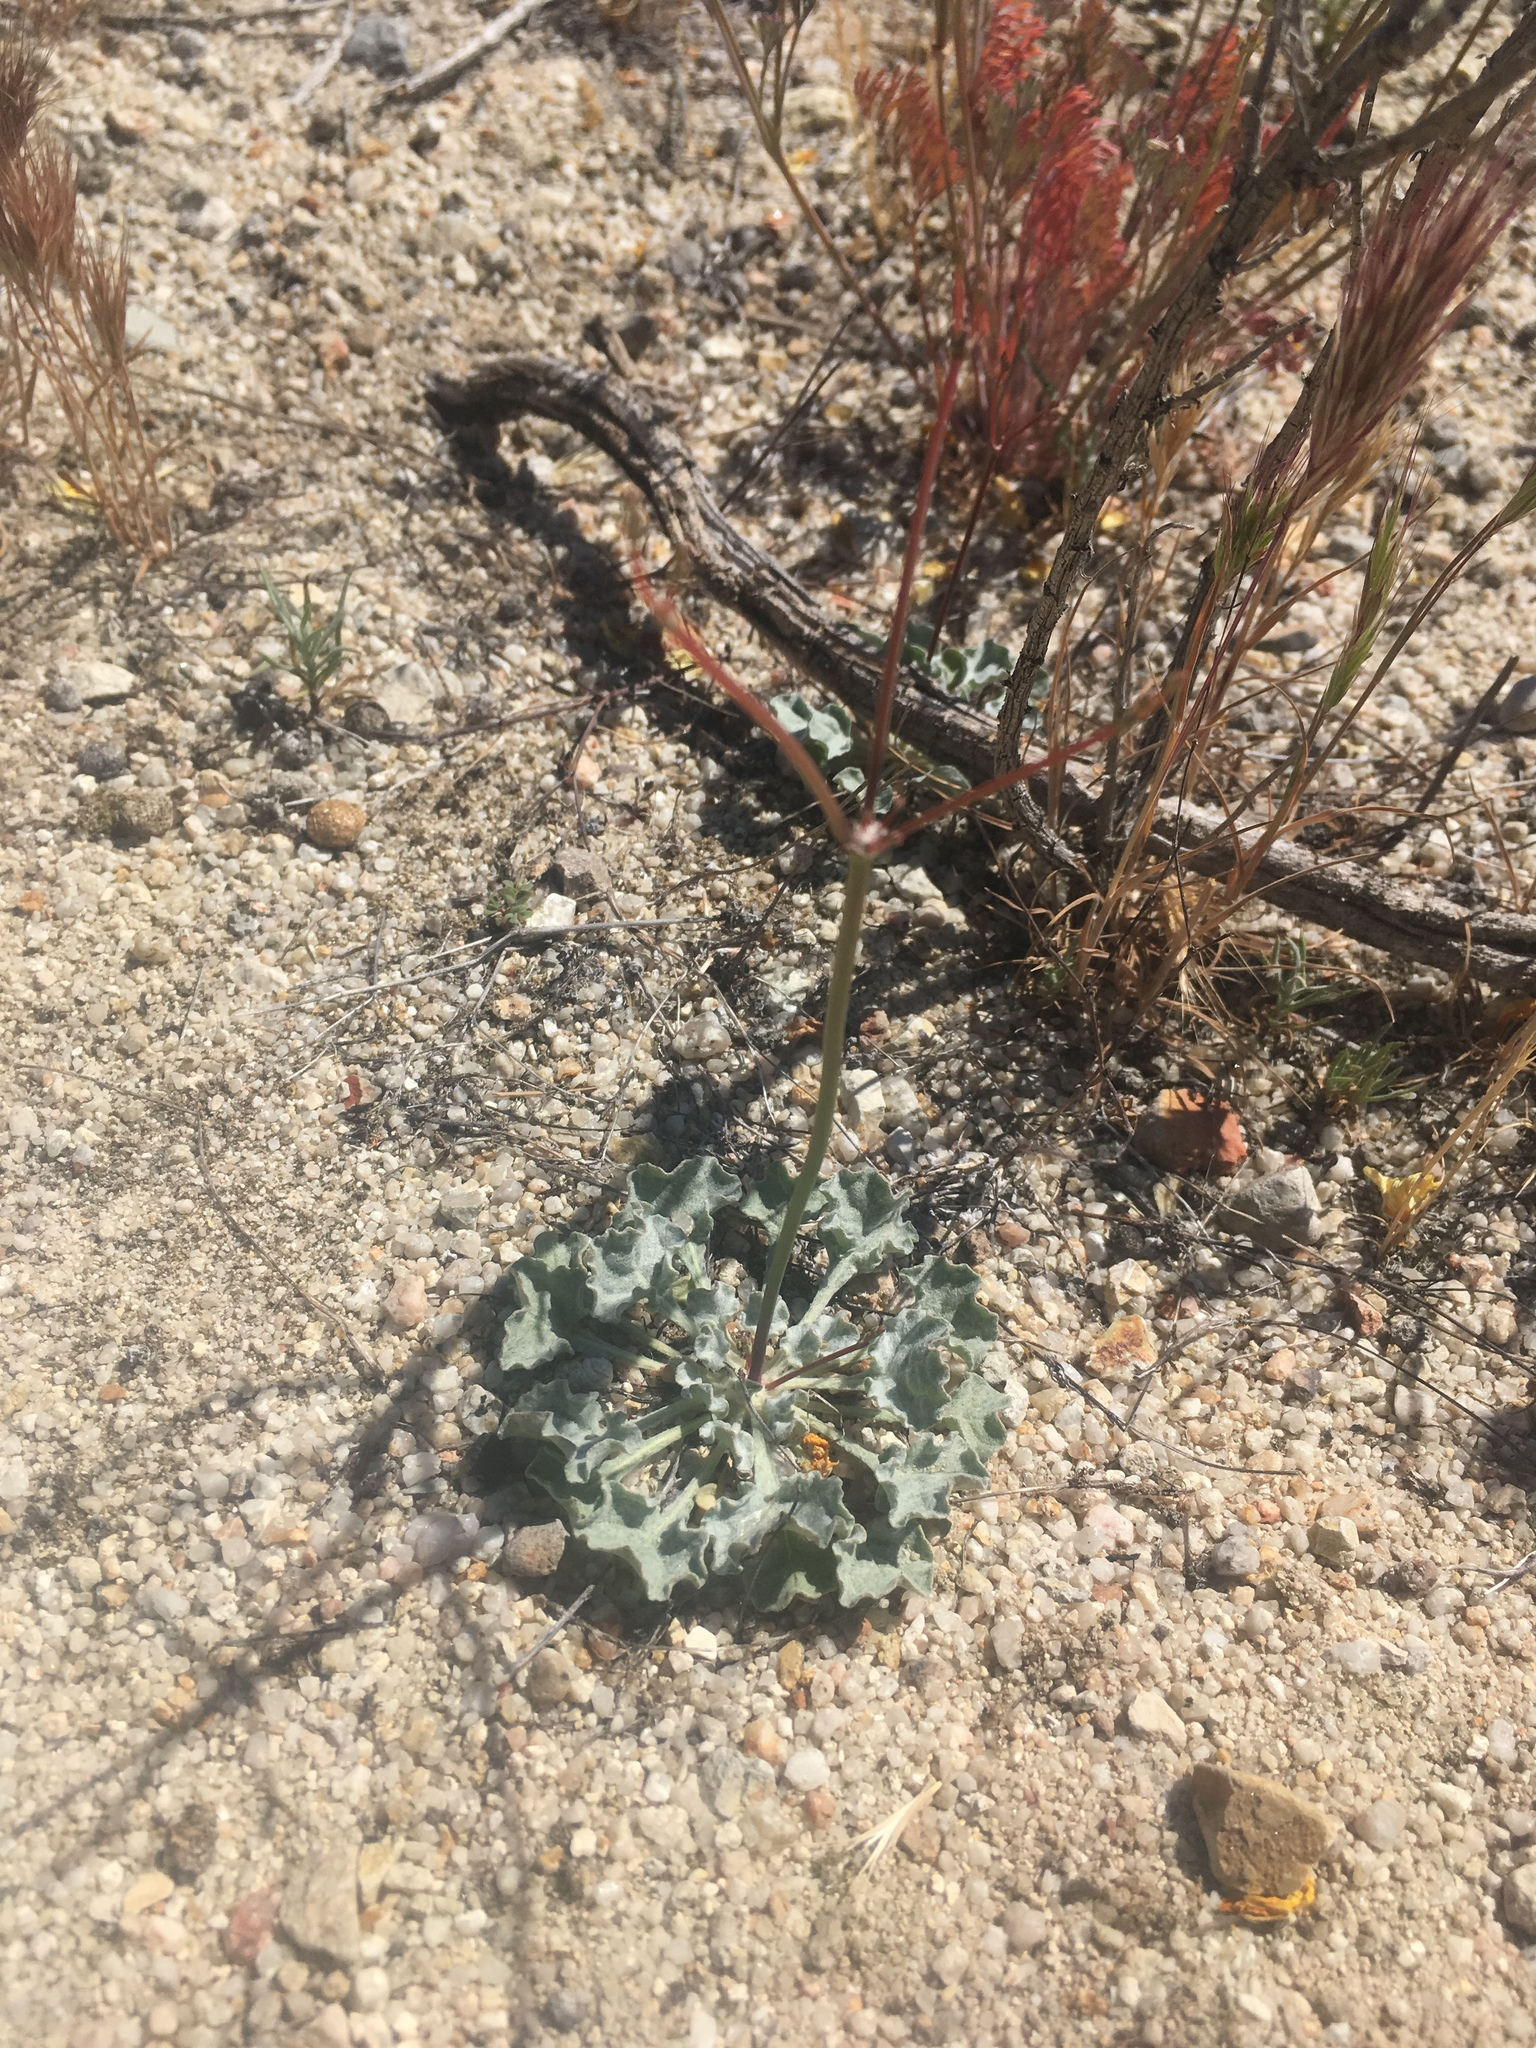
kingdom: Plantae
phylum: Tracheophyta
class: Magnoliopsida
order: Caryophyllales
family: Polygonaceae
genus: Eriogonum
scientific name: Eriogonum elegans
